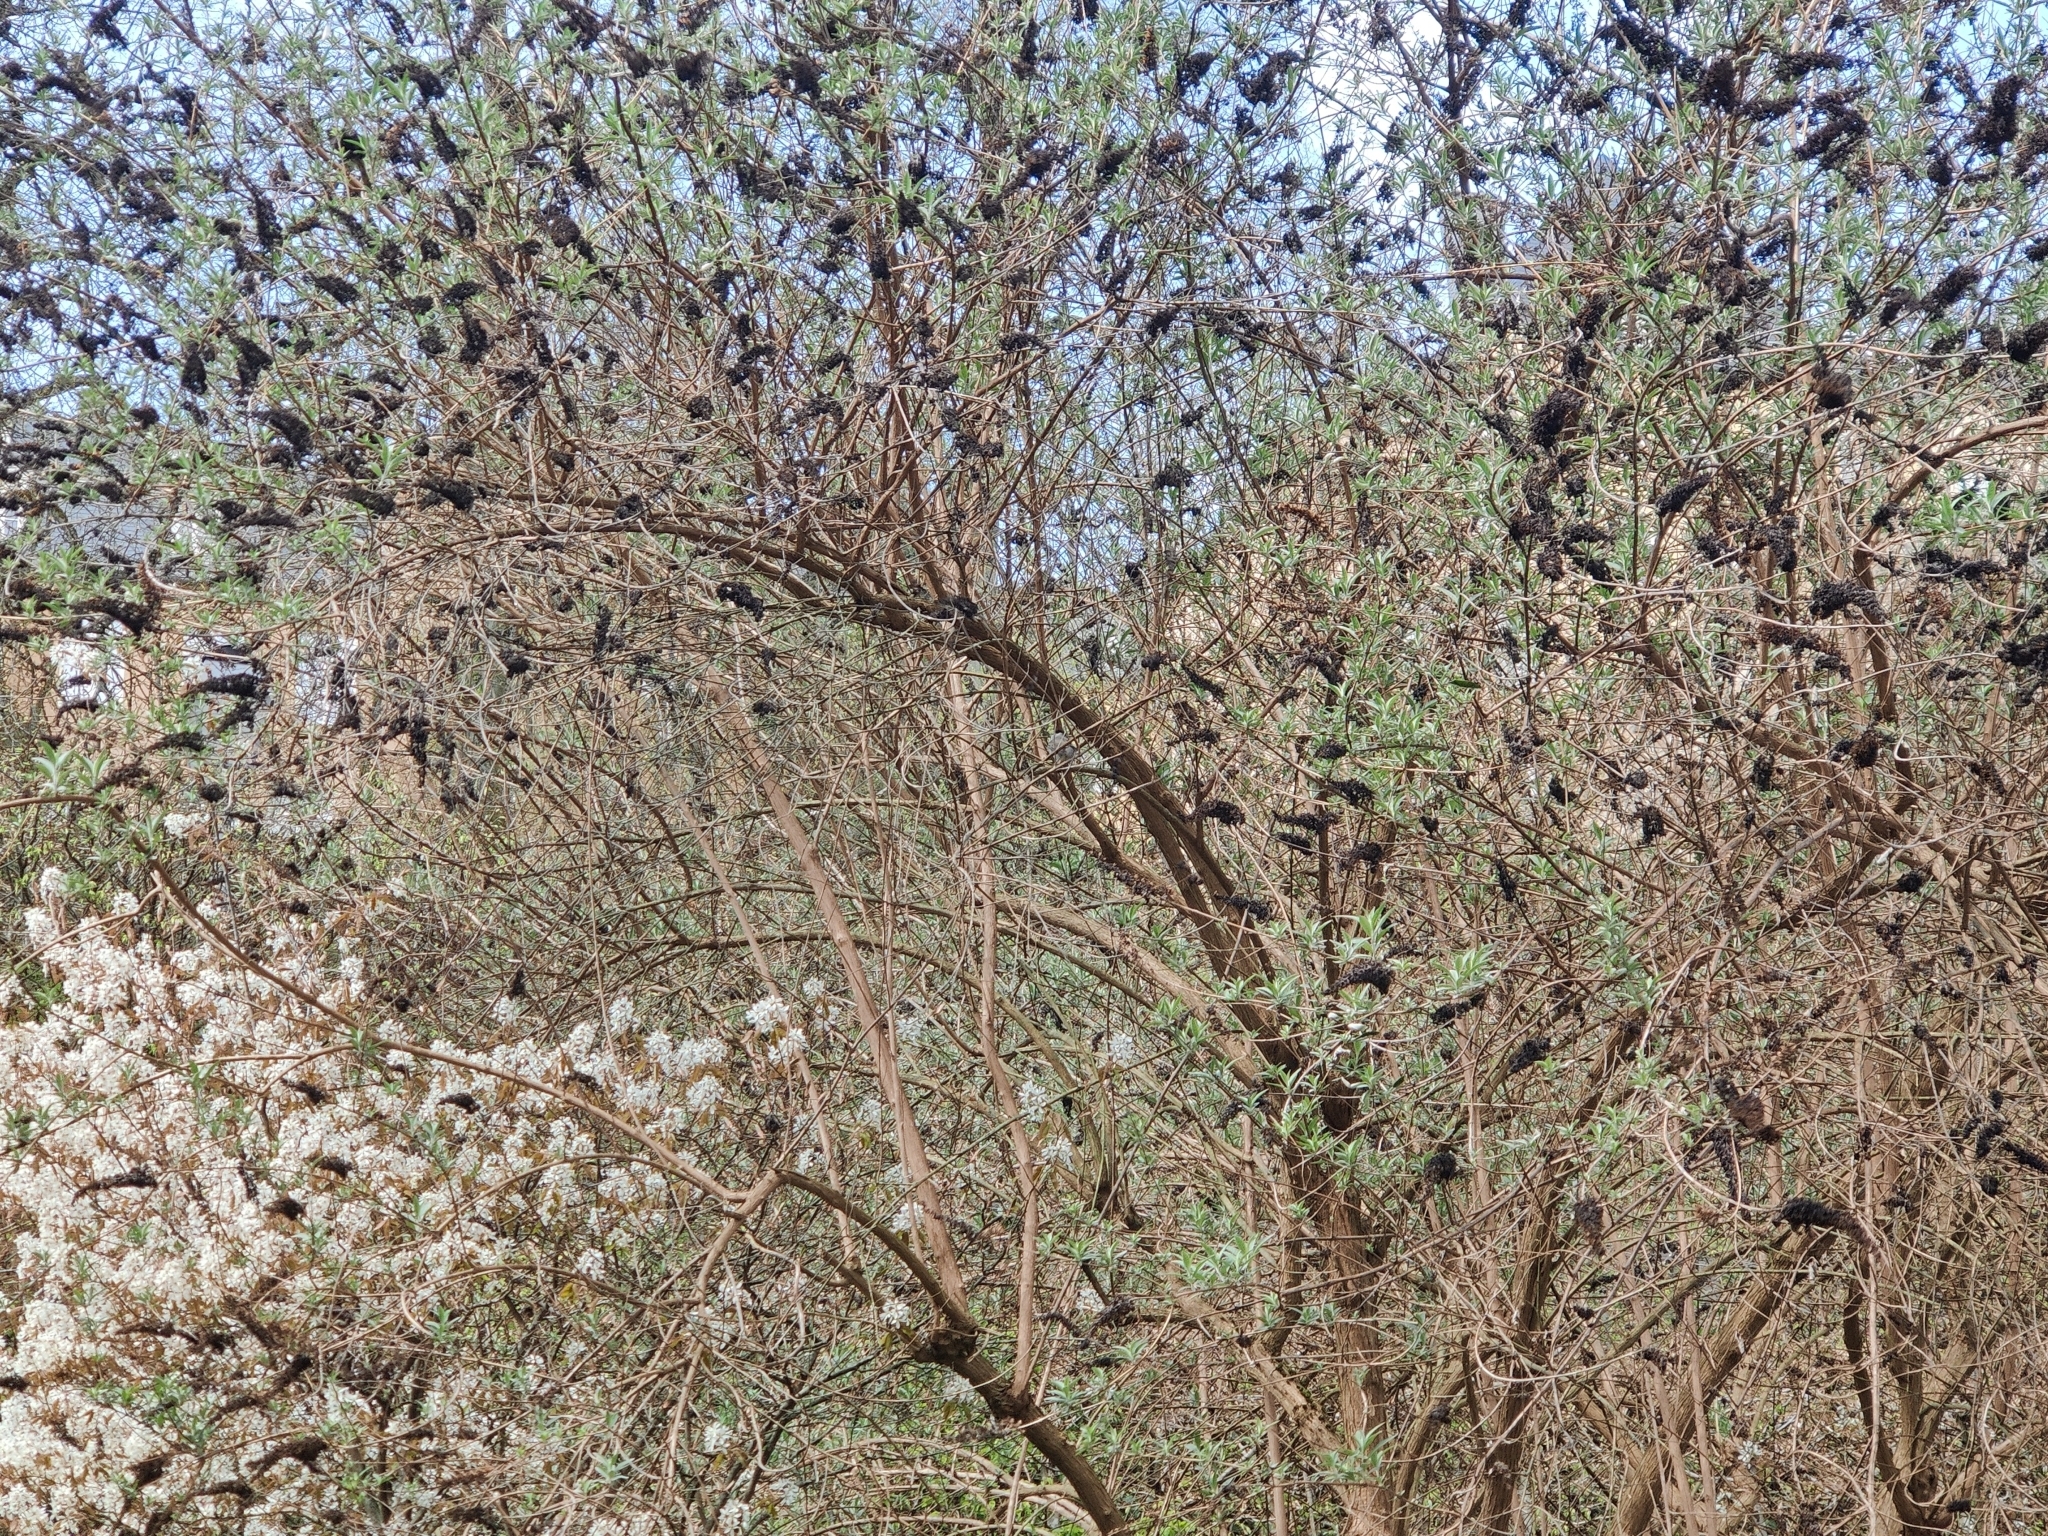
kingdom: Animalia
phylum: Chordata
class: Aves
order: Passeriformes
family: Sylviidae
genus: Sylvia
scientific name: Sylvia atricapilla
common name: Eurasian blackcap
